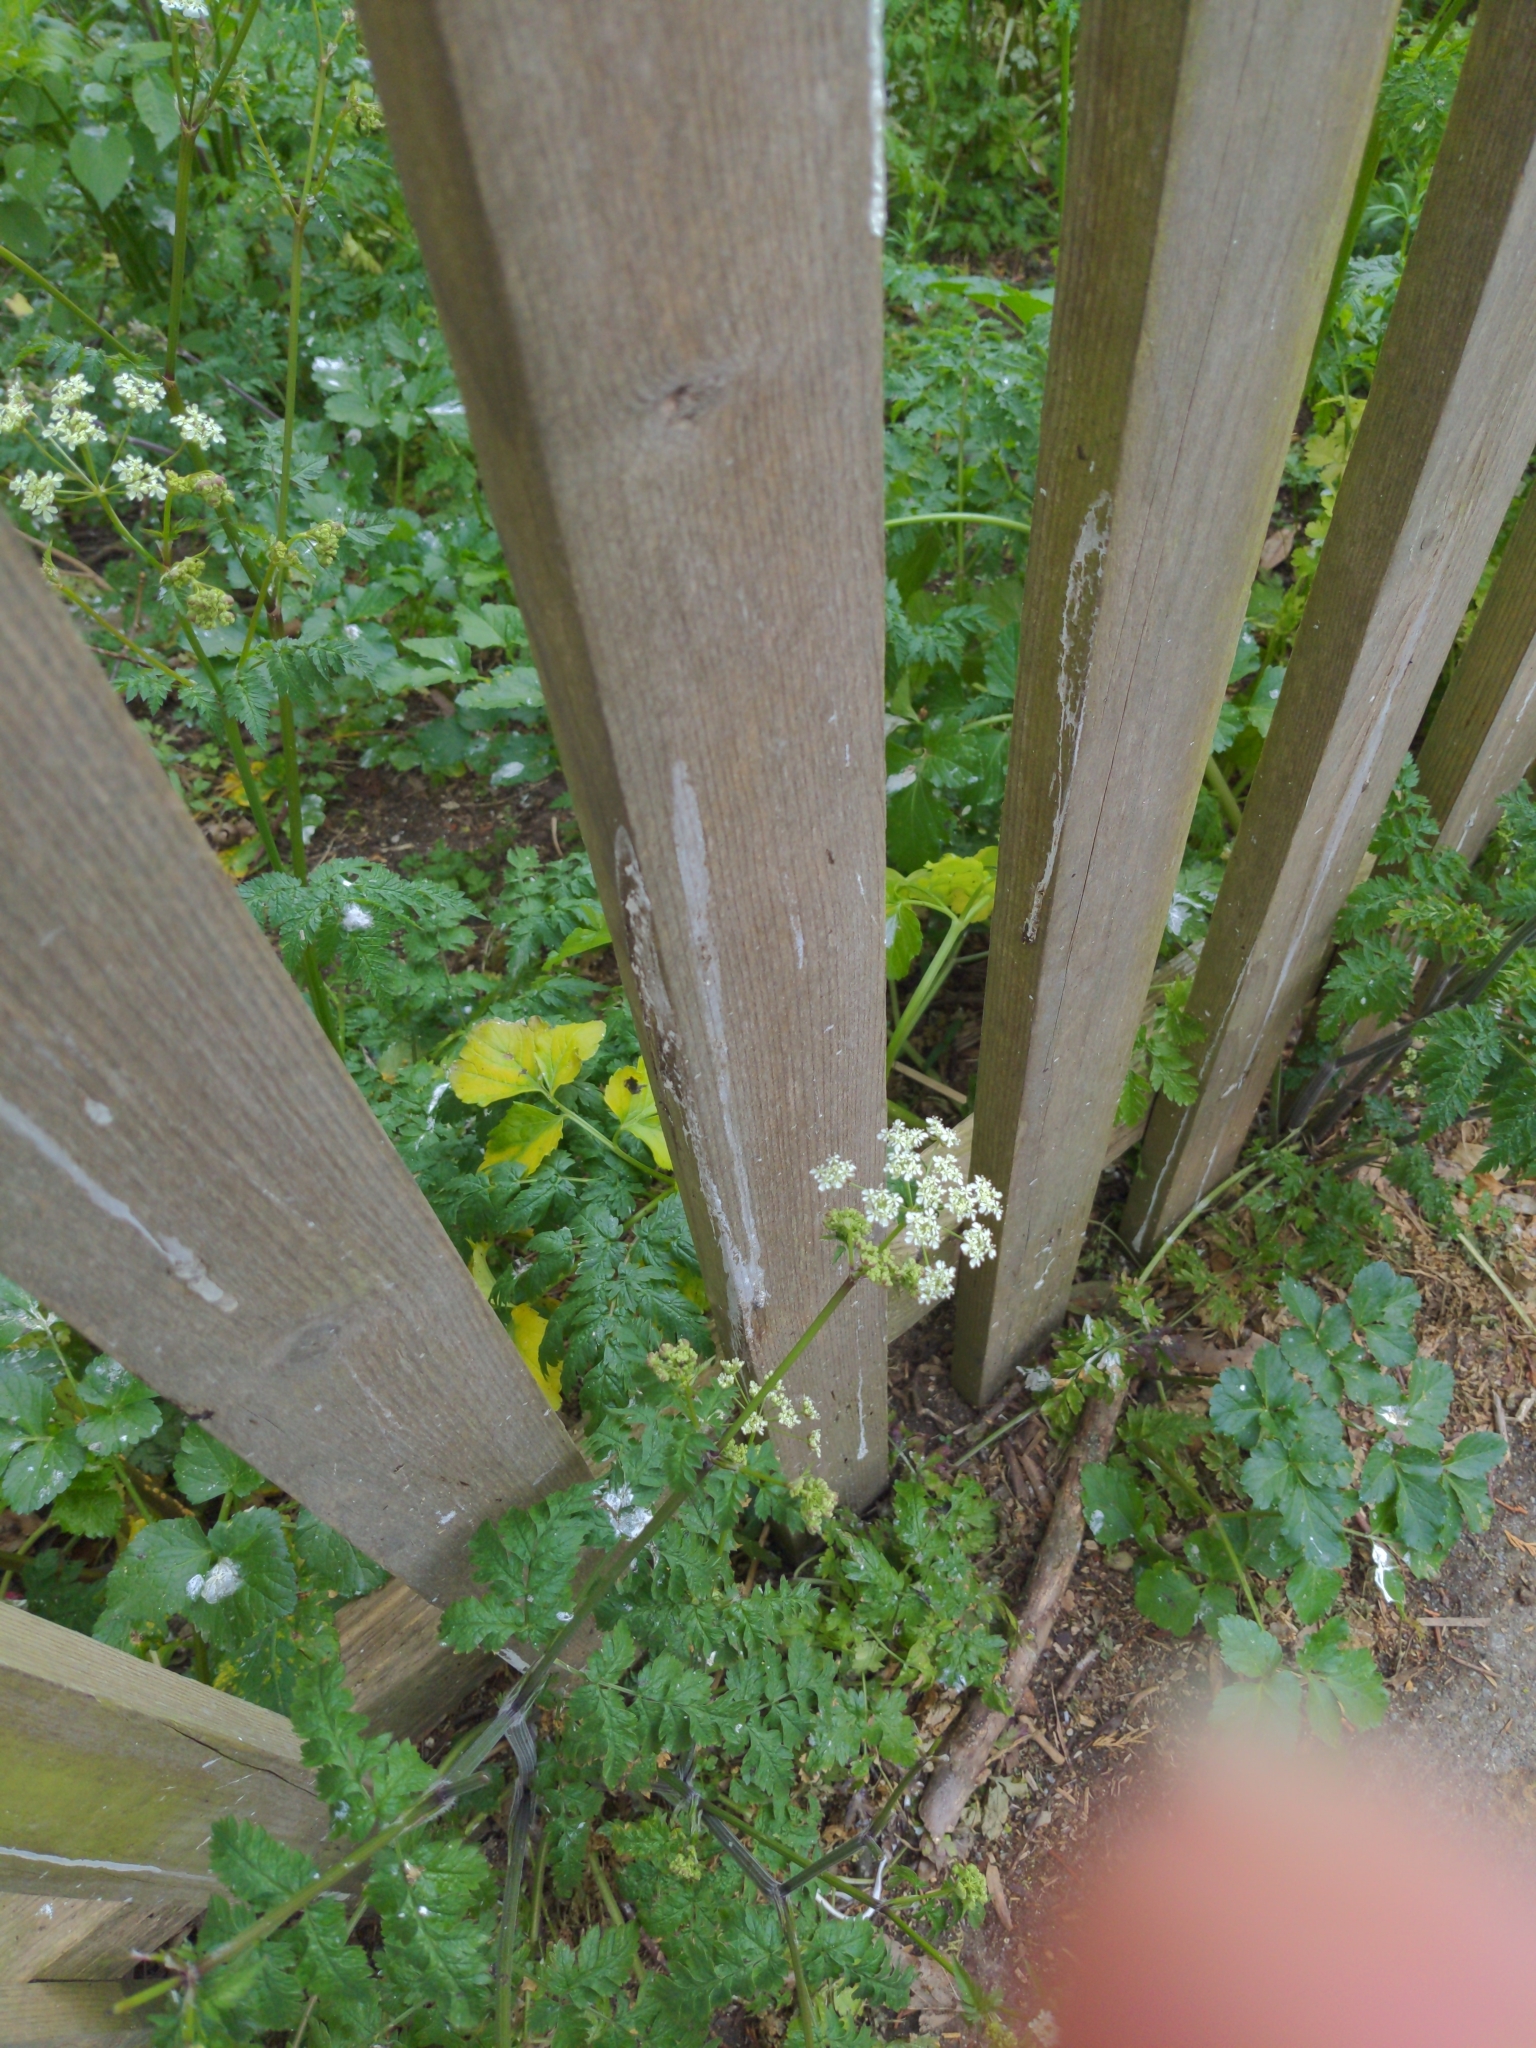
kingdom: Plantae
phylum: Tracheophyta
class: Magnoliopsida
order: Apiales
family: Apiaceae
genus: Anthriscus
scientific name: Anthriscus sylvestris
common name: Cow parsley
